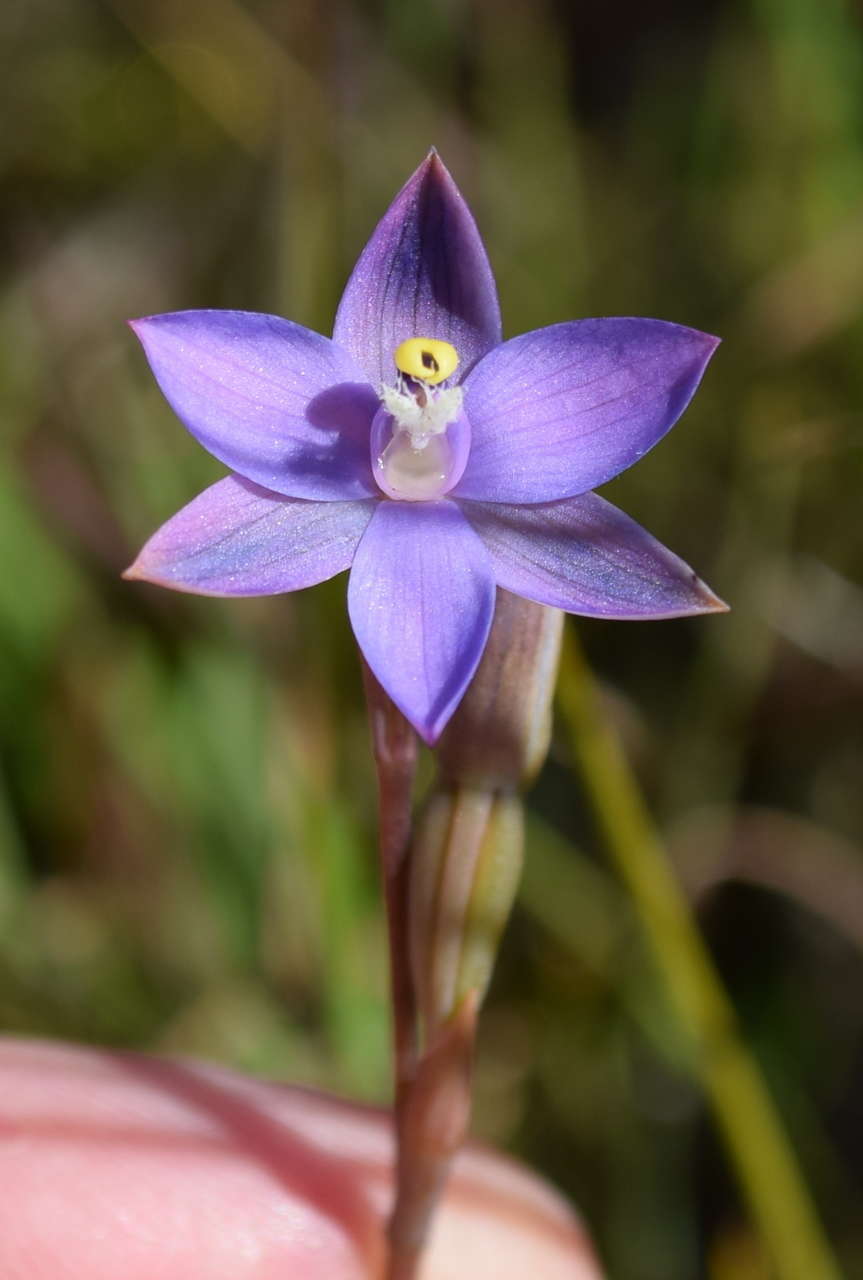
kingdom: Plantae
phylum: Tracheophyta
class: Liliopsida
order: Asparagales
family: Orchidaceae
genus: Thelymitra
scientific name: Thelymitra holmesii
